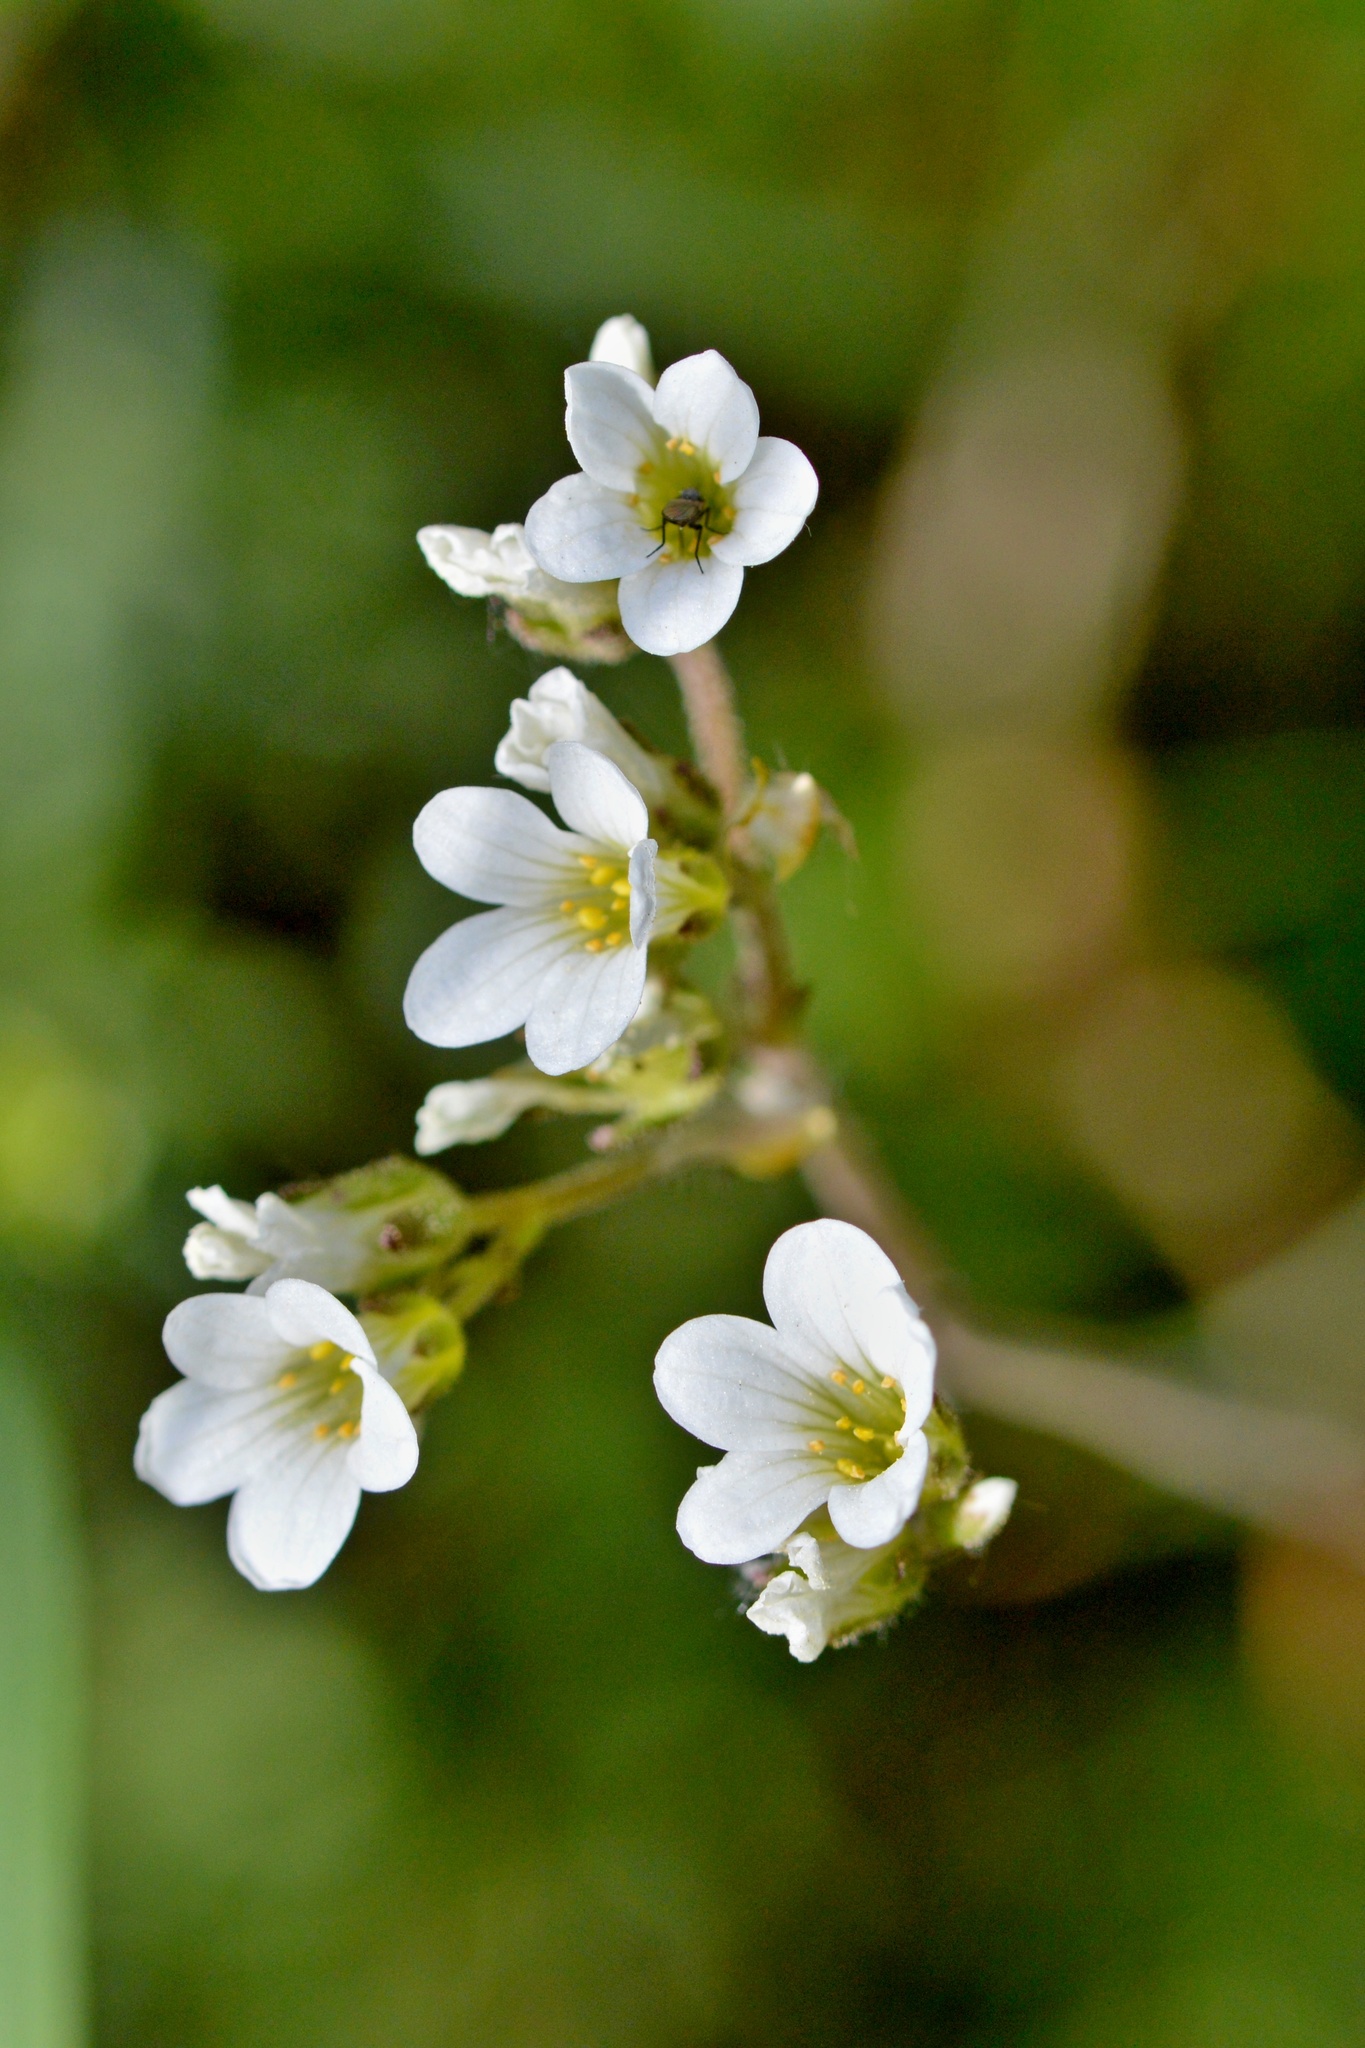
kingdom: Plantae
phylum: Tracheophyta
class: Magnoliopsida
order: Saxifragales
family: Saxifragaceae
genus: Saxifraga
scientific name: Saxifraga granulata
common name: Meadow saxifrage
